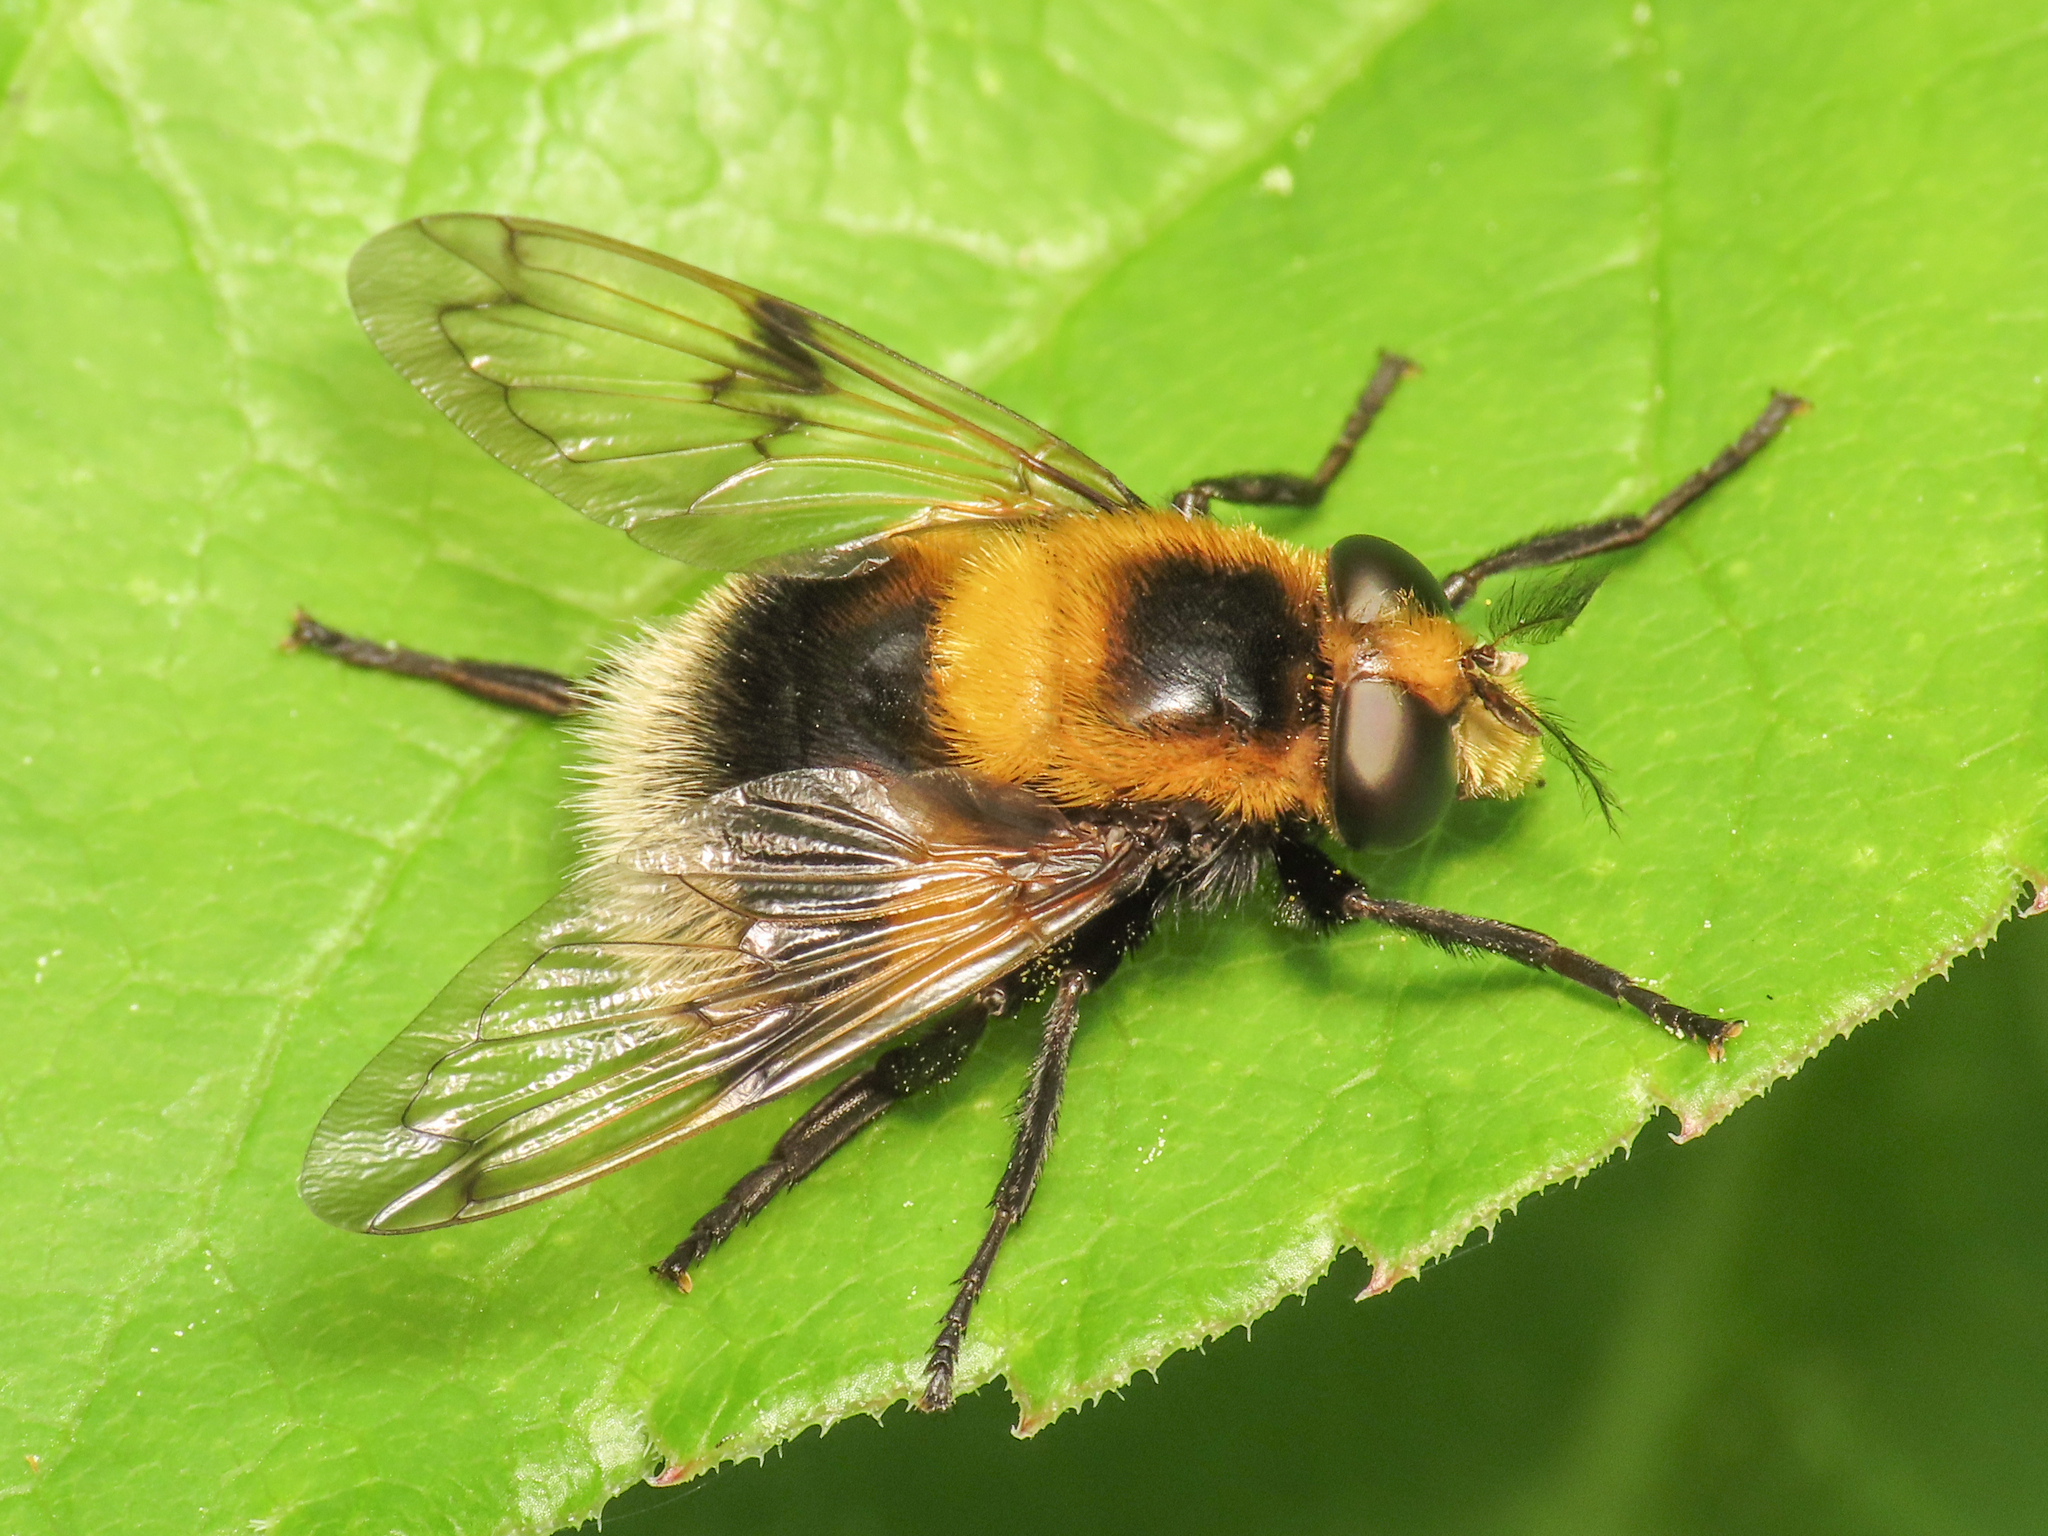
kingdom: Animalia
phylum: Arthropoda
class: Insecta
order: Diptera
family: Syrphidae
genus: Volucella
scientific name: Volucella bombylans
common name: Bumble bee hover fly
